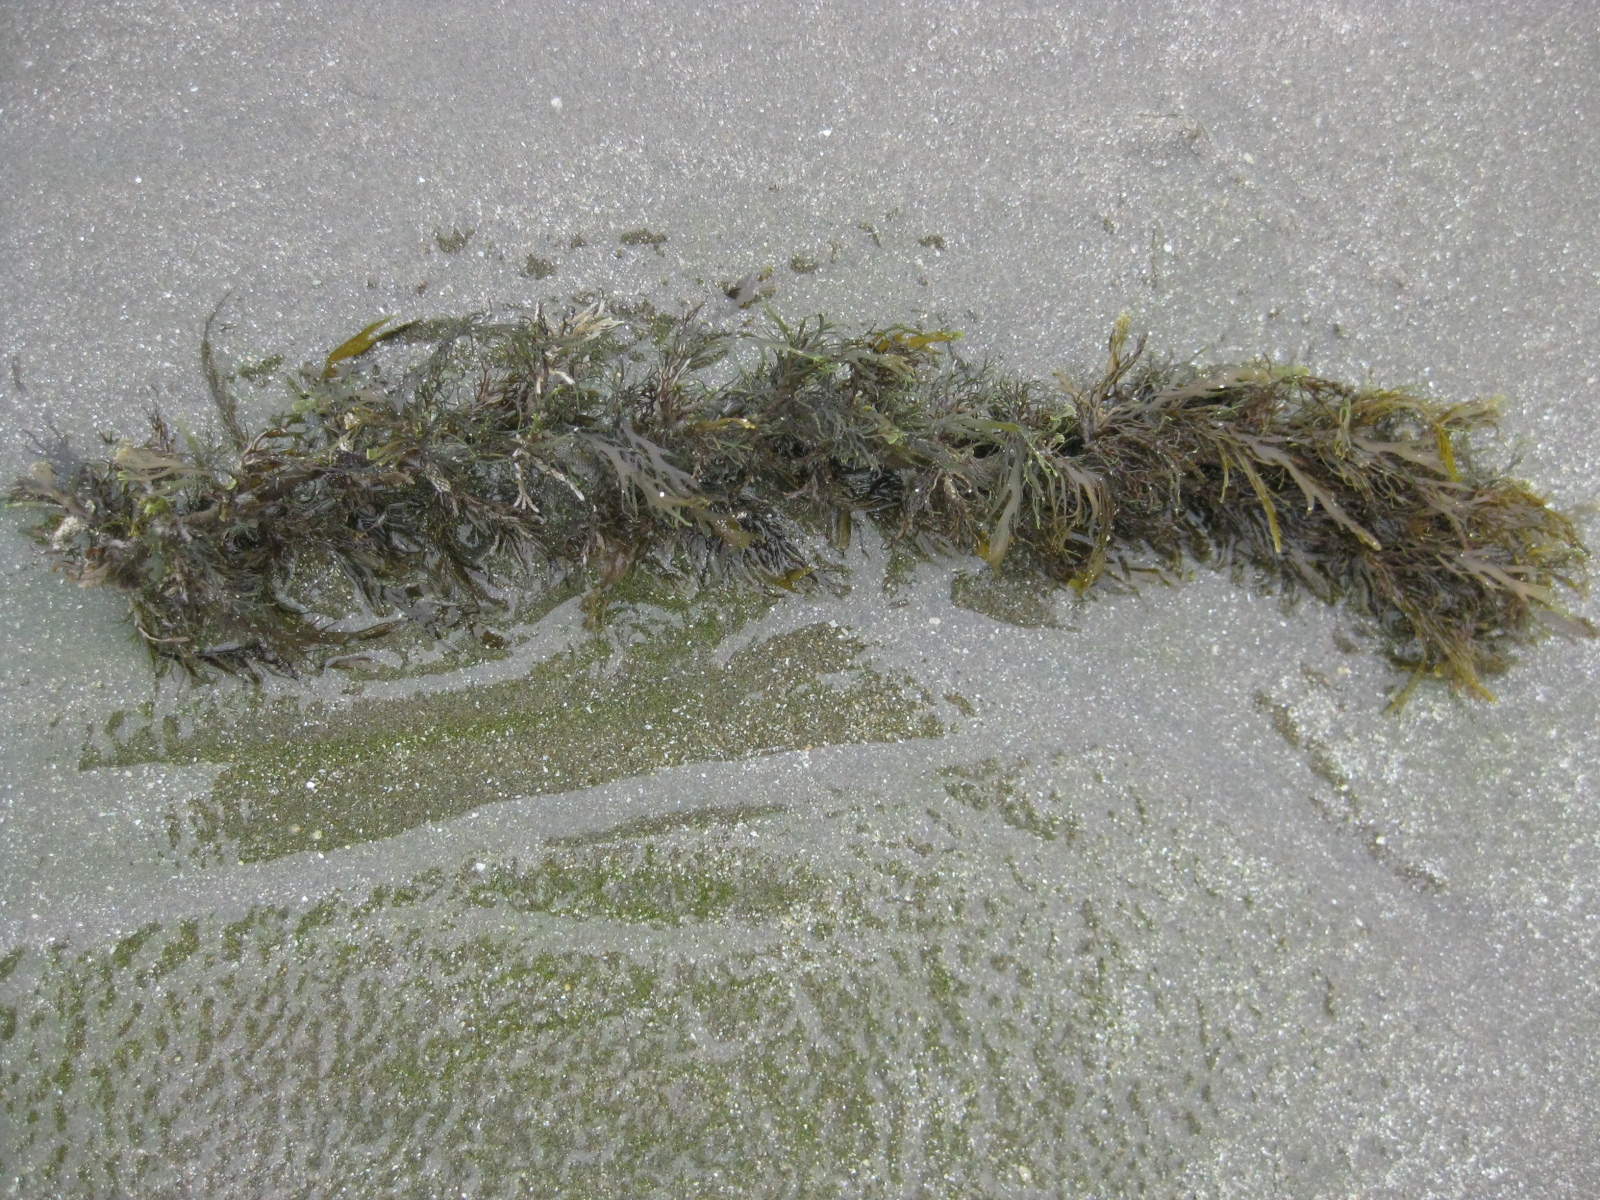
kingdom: Chromista
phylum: Ochrophyta
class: Phaeophyceae
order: Fucales
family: Sargassaceae
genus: Carpophyllum
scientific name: Carpophyllum plumosum
